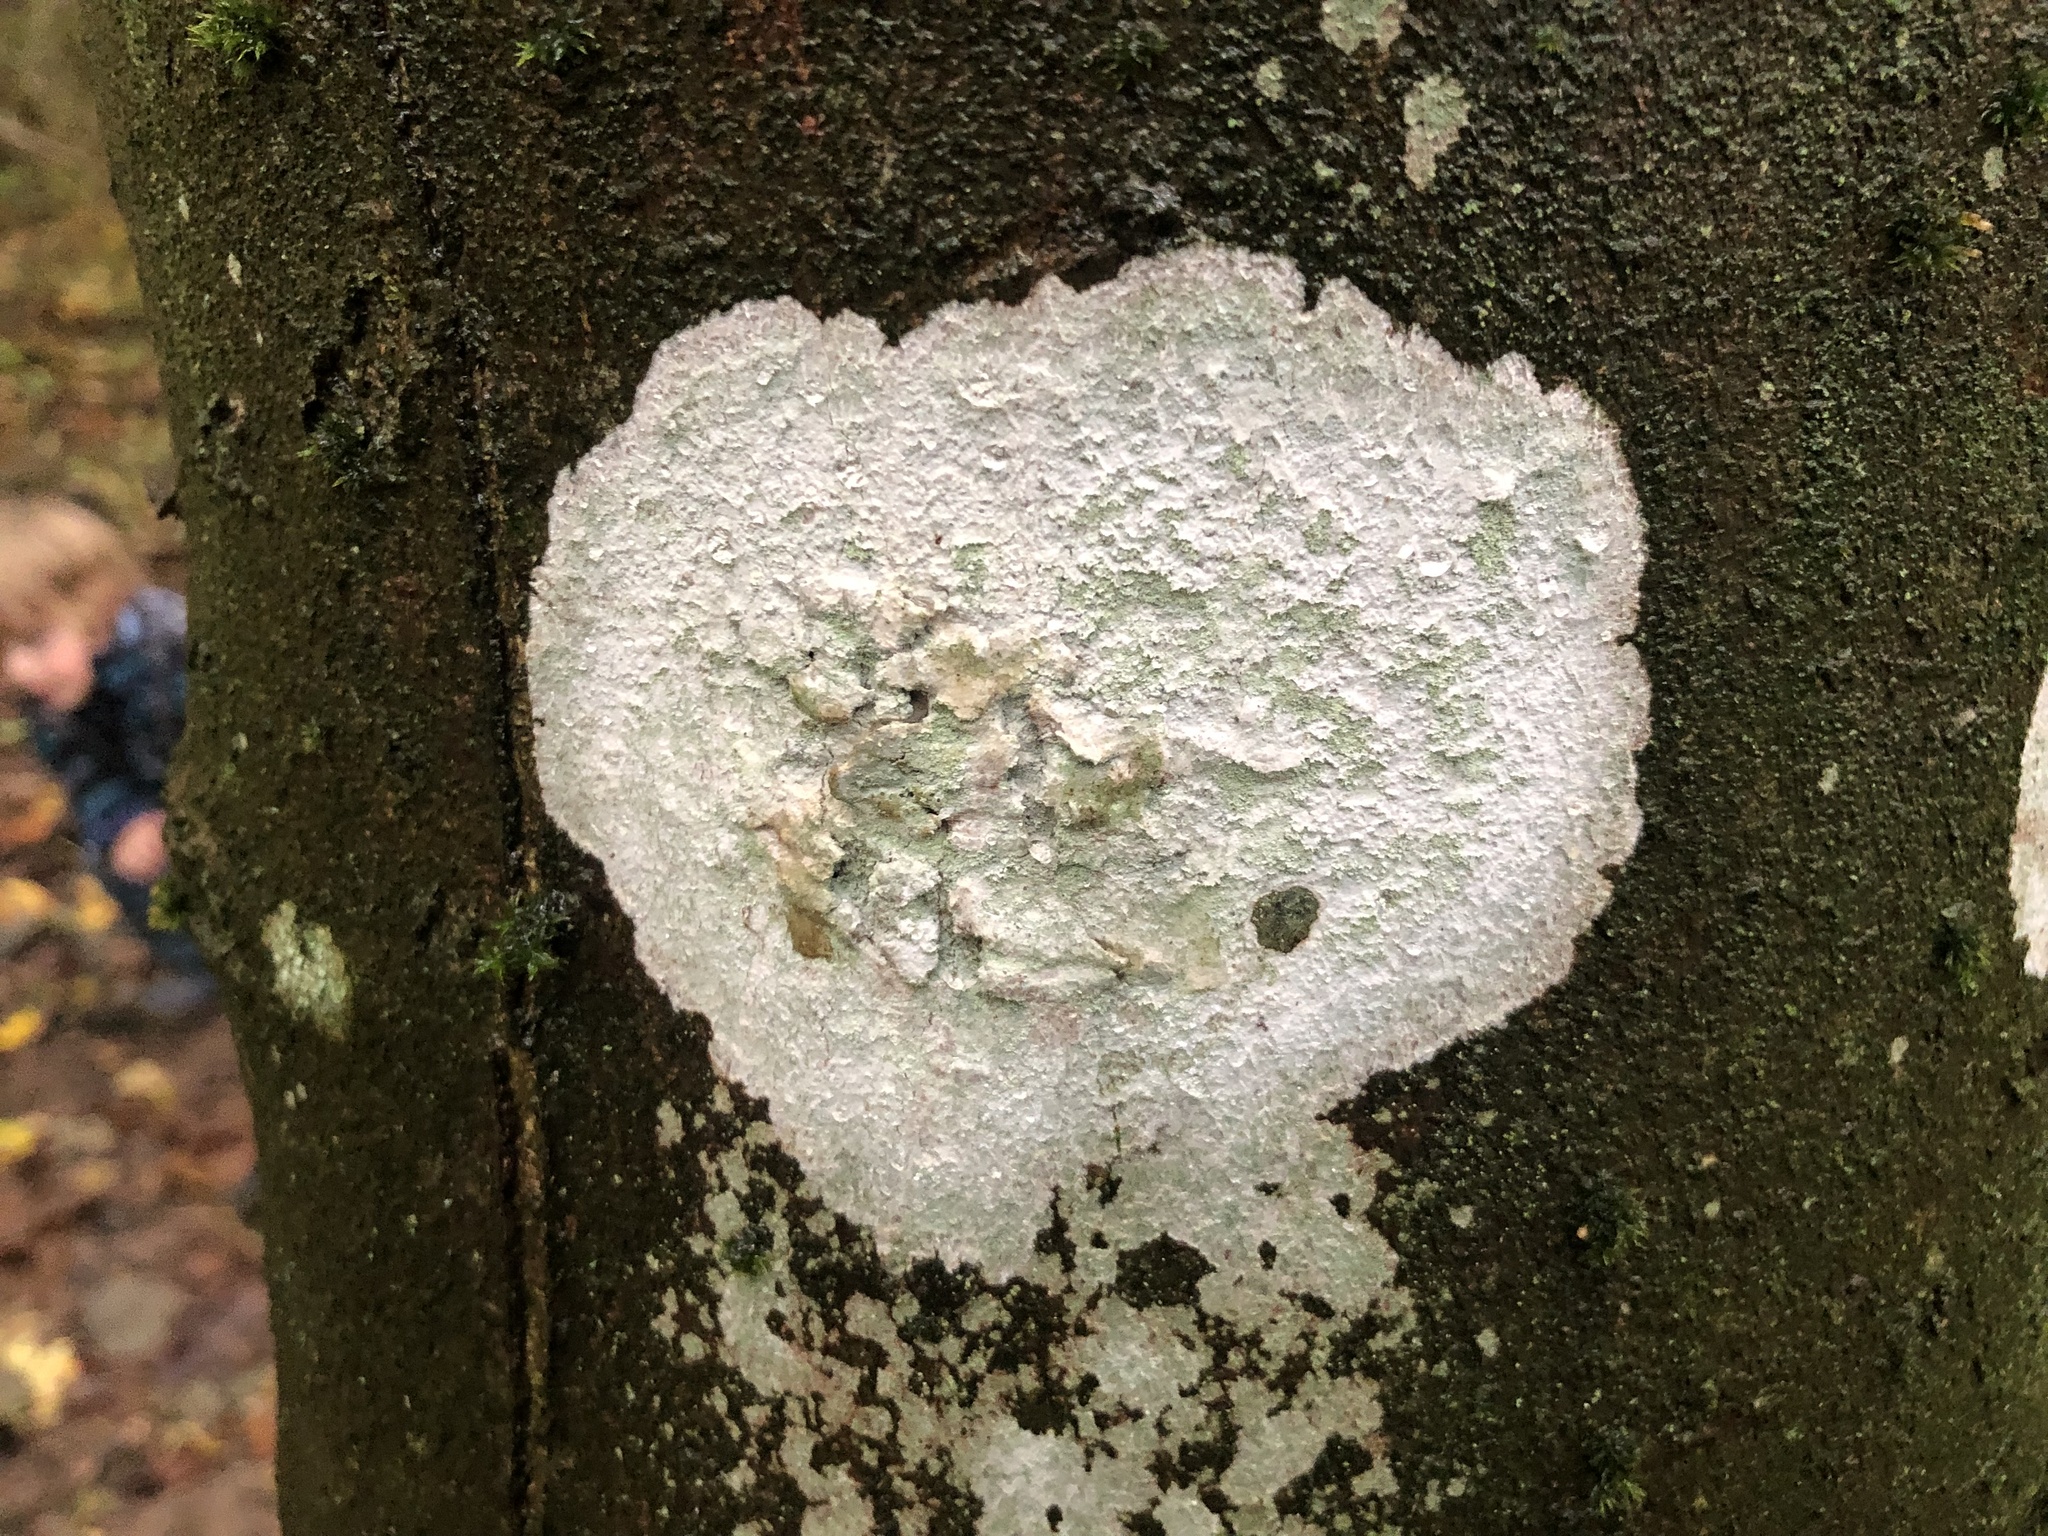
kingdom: Fungi
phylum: Ascomycota
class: Lecanoromycetes
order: Ostropales
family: Phlyctidaceae
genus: Phlyctis
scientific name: Phlyctis argena
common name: Whitewash lichen
